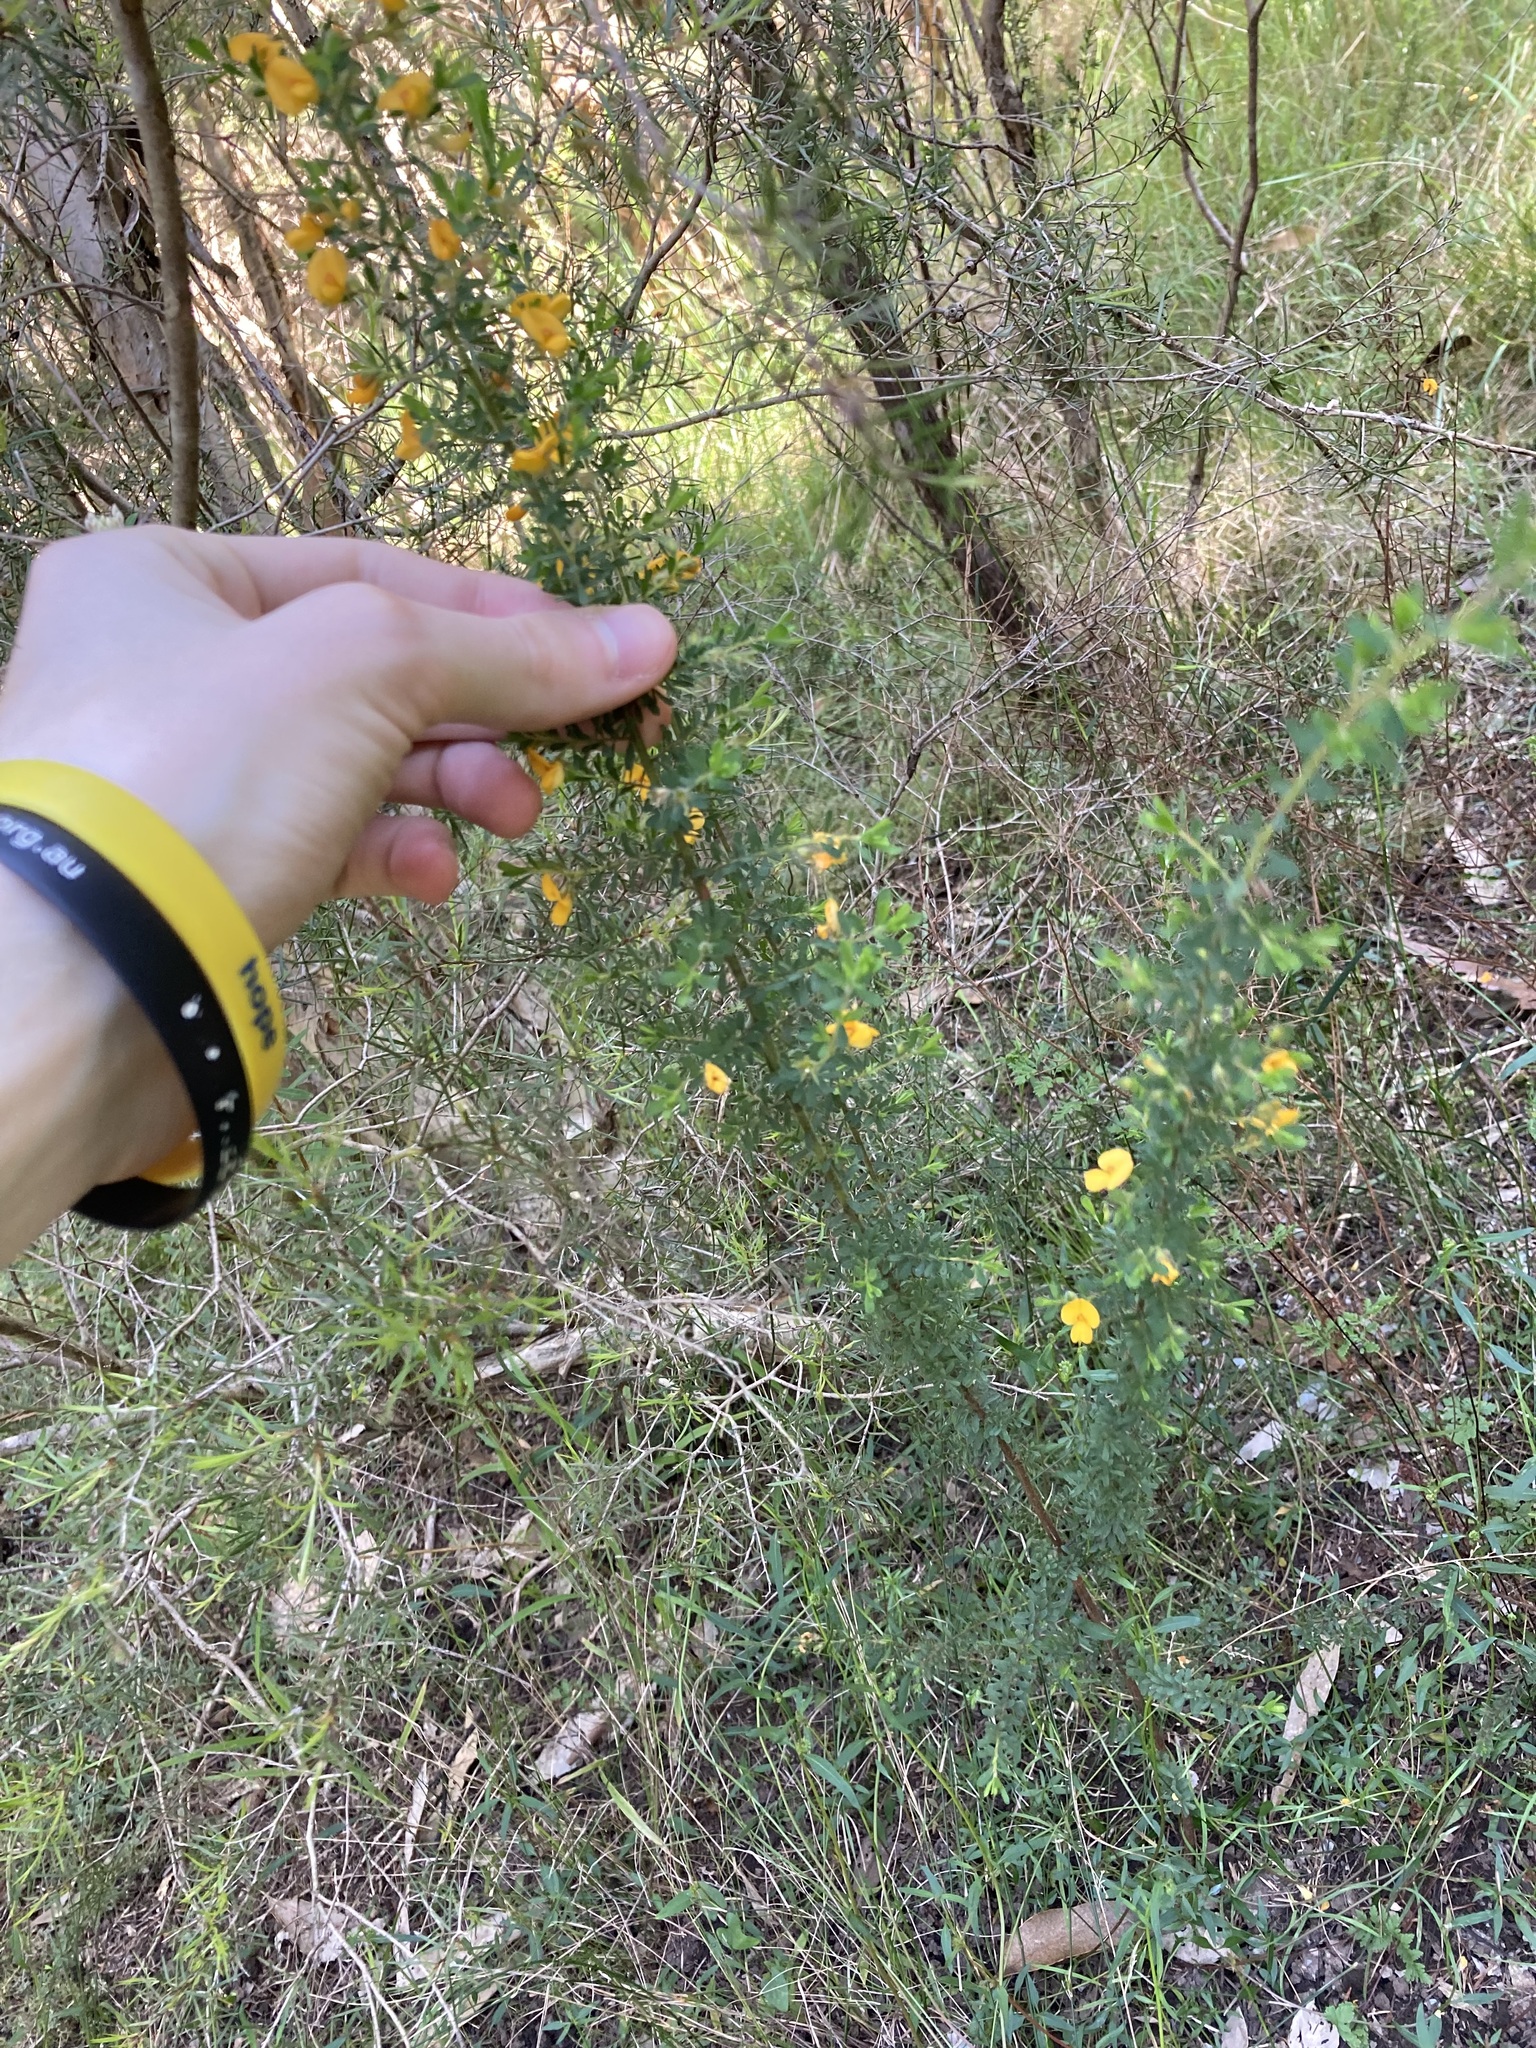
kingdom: Plantae
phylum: Tracheophyta
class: Magnoliopsida
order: Fabales
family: Fabaceae
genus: Pultenaea
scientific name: Pultenaea villosa
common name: Bronze bush-pea
